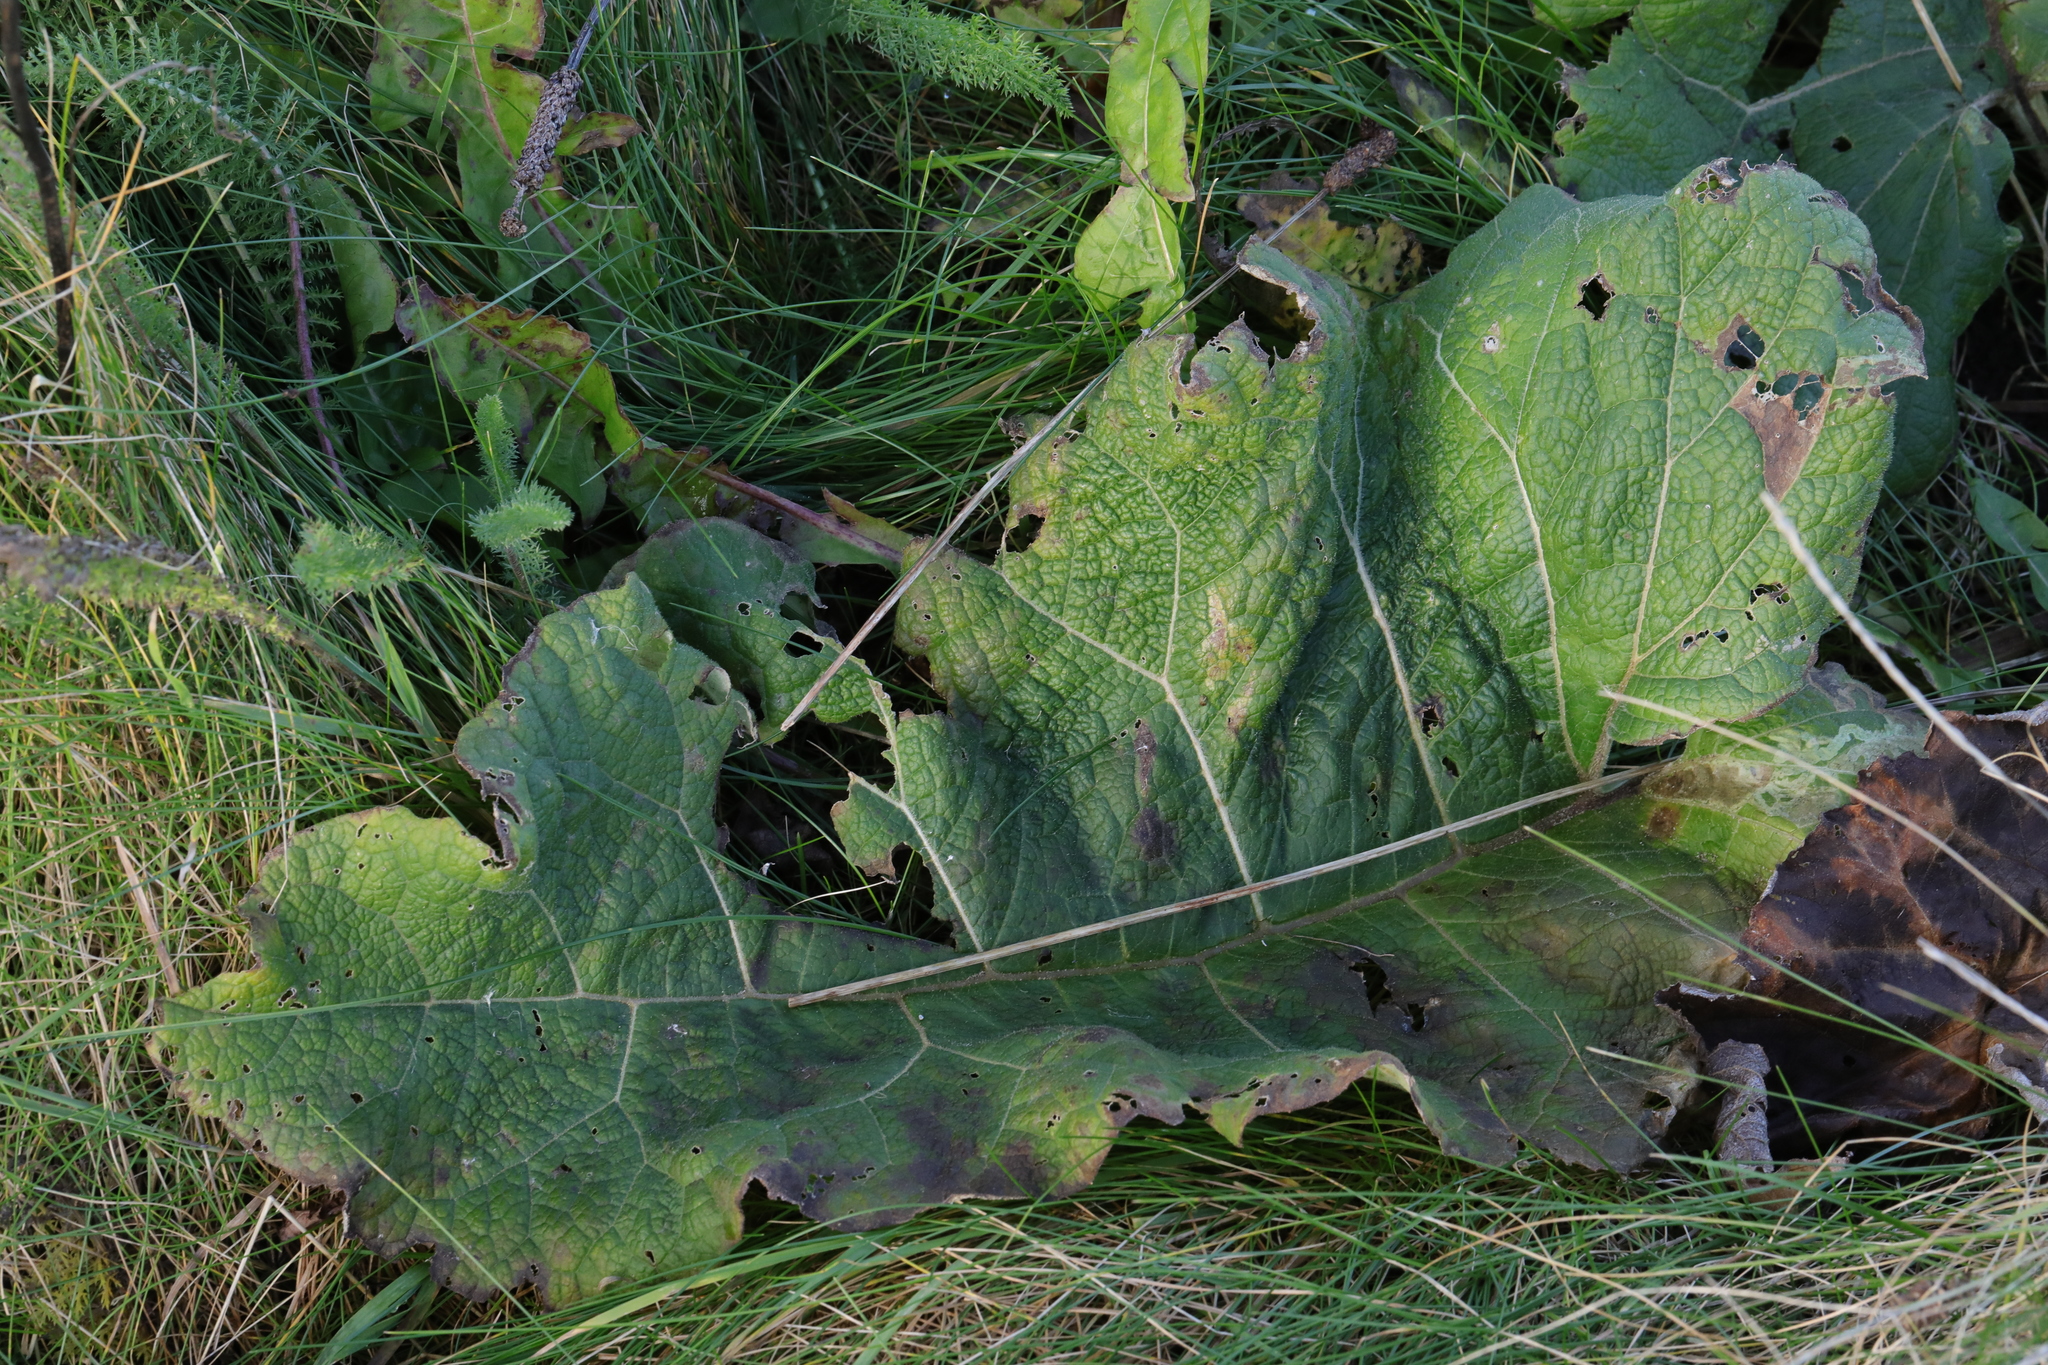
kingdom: Plantae
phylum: Tracheophyta
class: Magnoliopsida
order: Asterales
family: Asteraceae
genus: Arctium
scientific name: Arctium minus
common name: Lesser burdock
